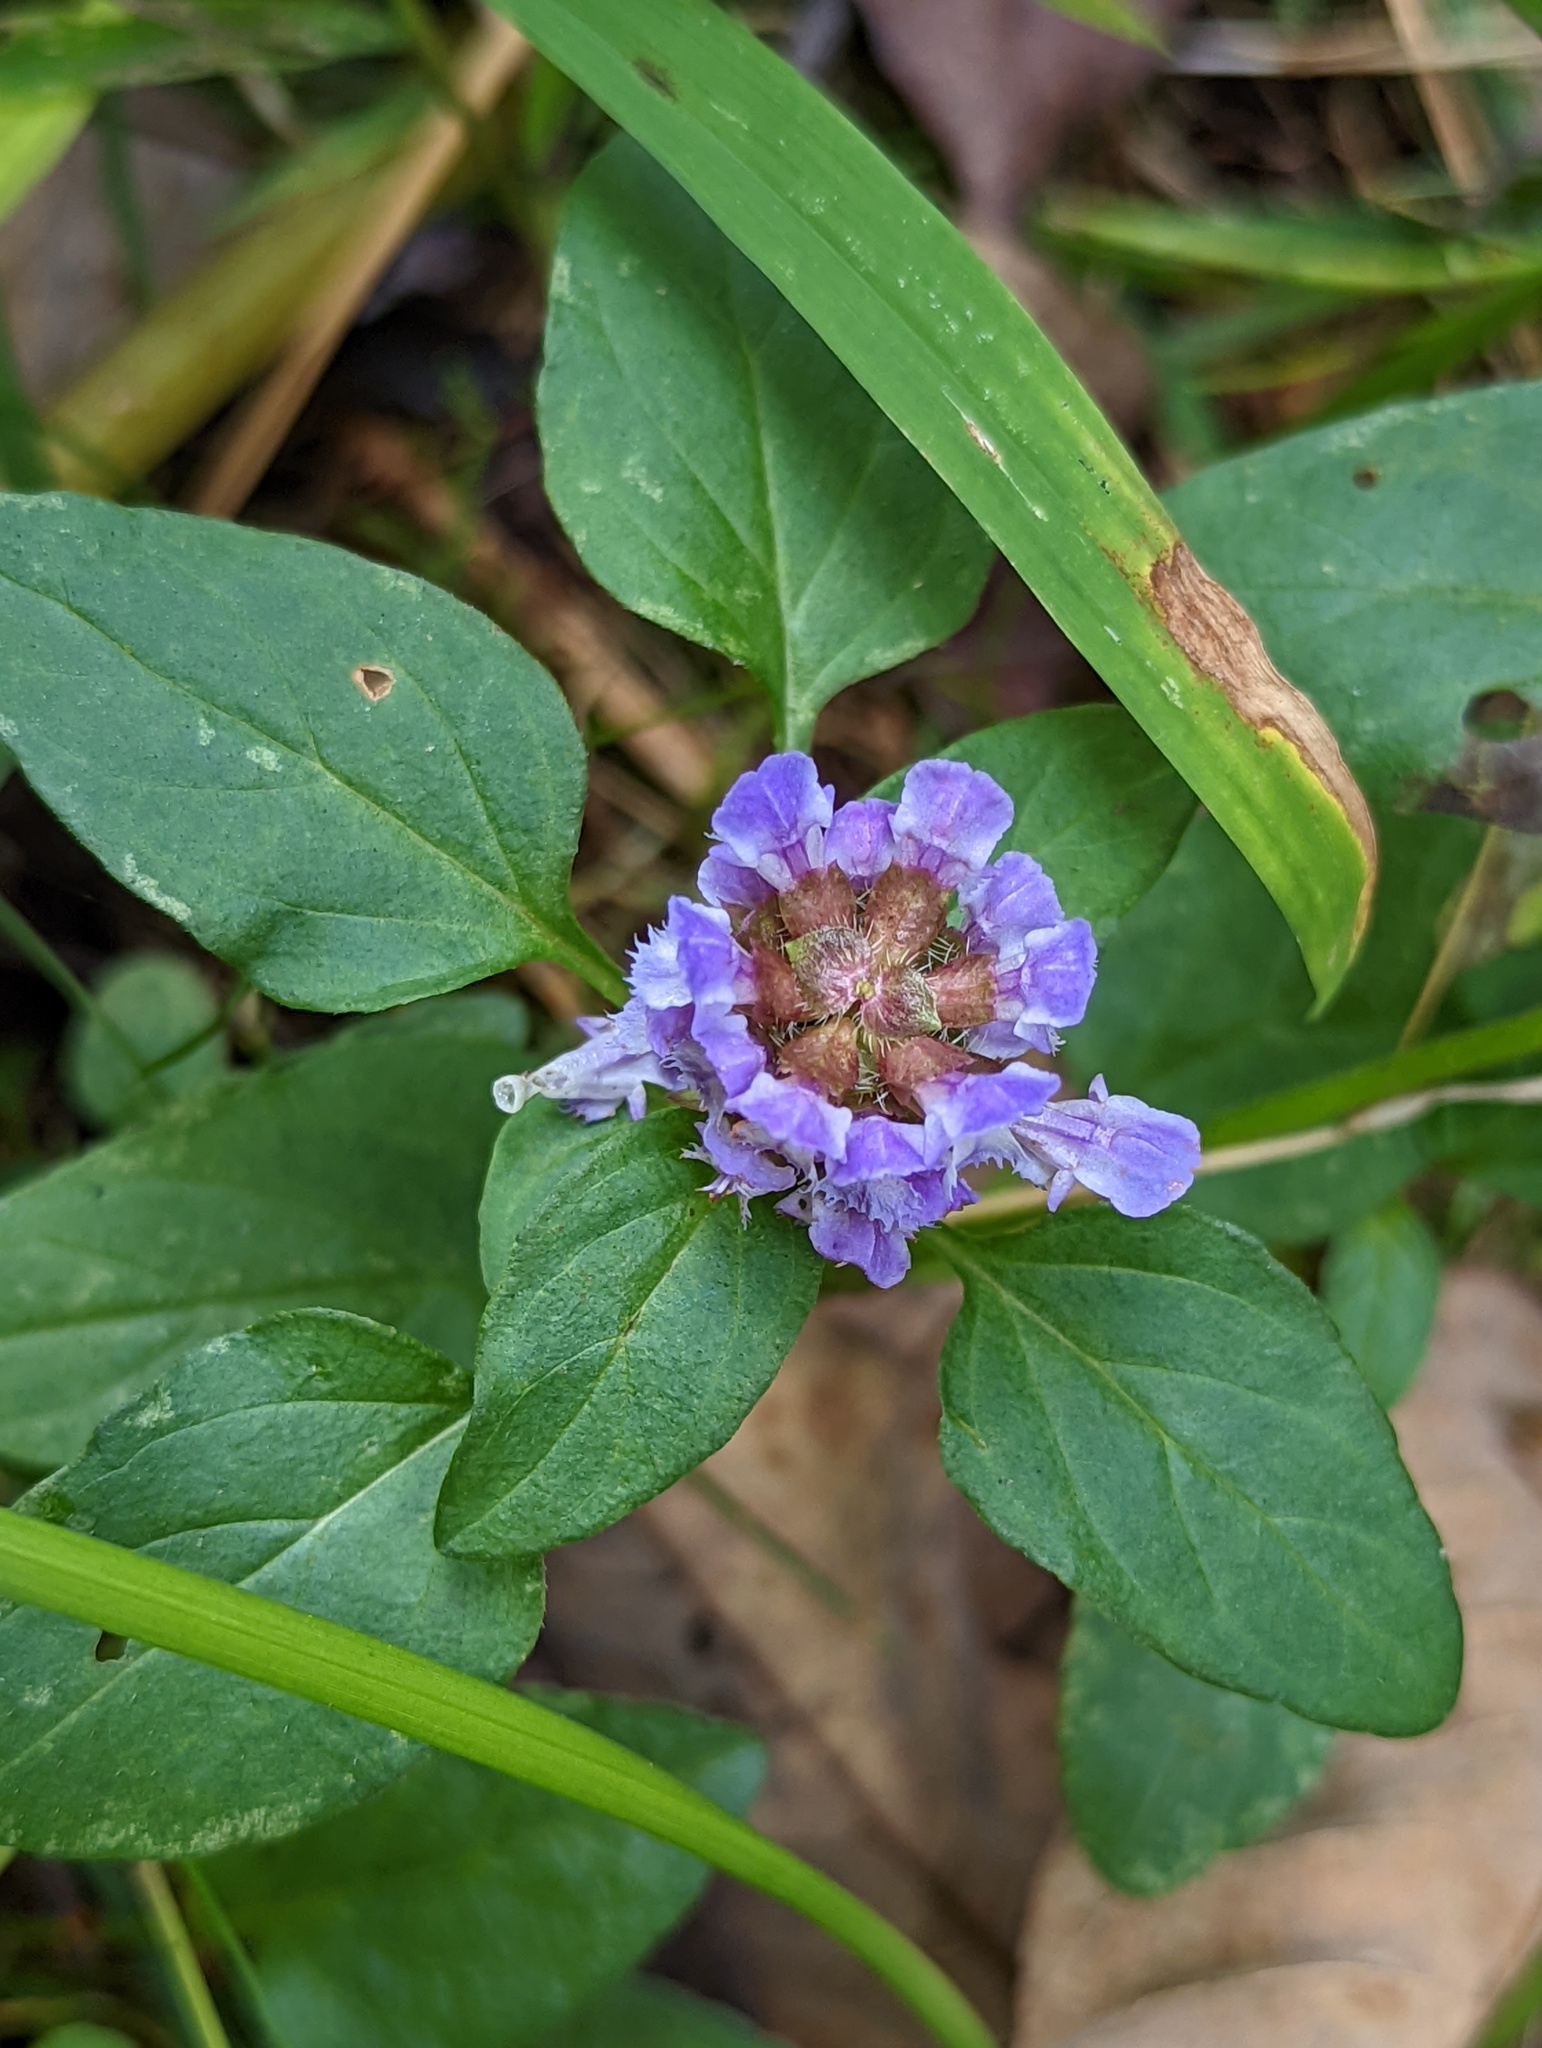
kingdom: Plantae
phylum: Tracheophyta
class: Magnoliopsida
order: Lamiales
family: Lamiaceae
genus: Prunella
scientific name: Prunella vulgaris
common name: Heal-all
